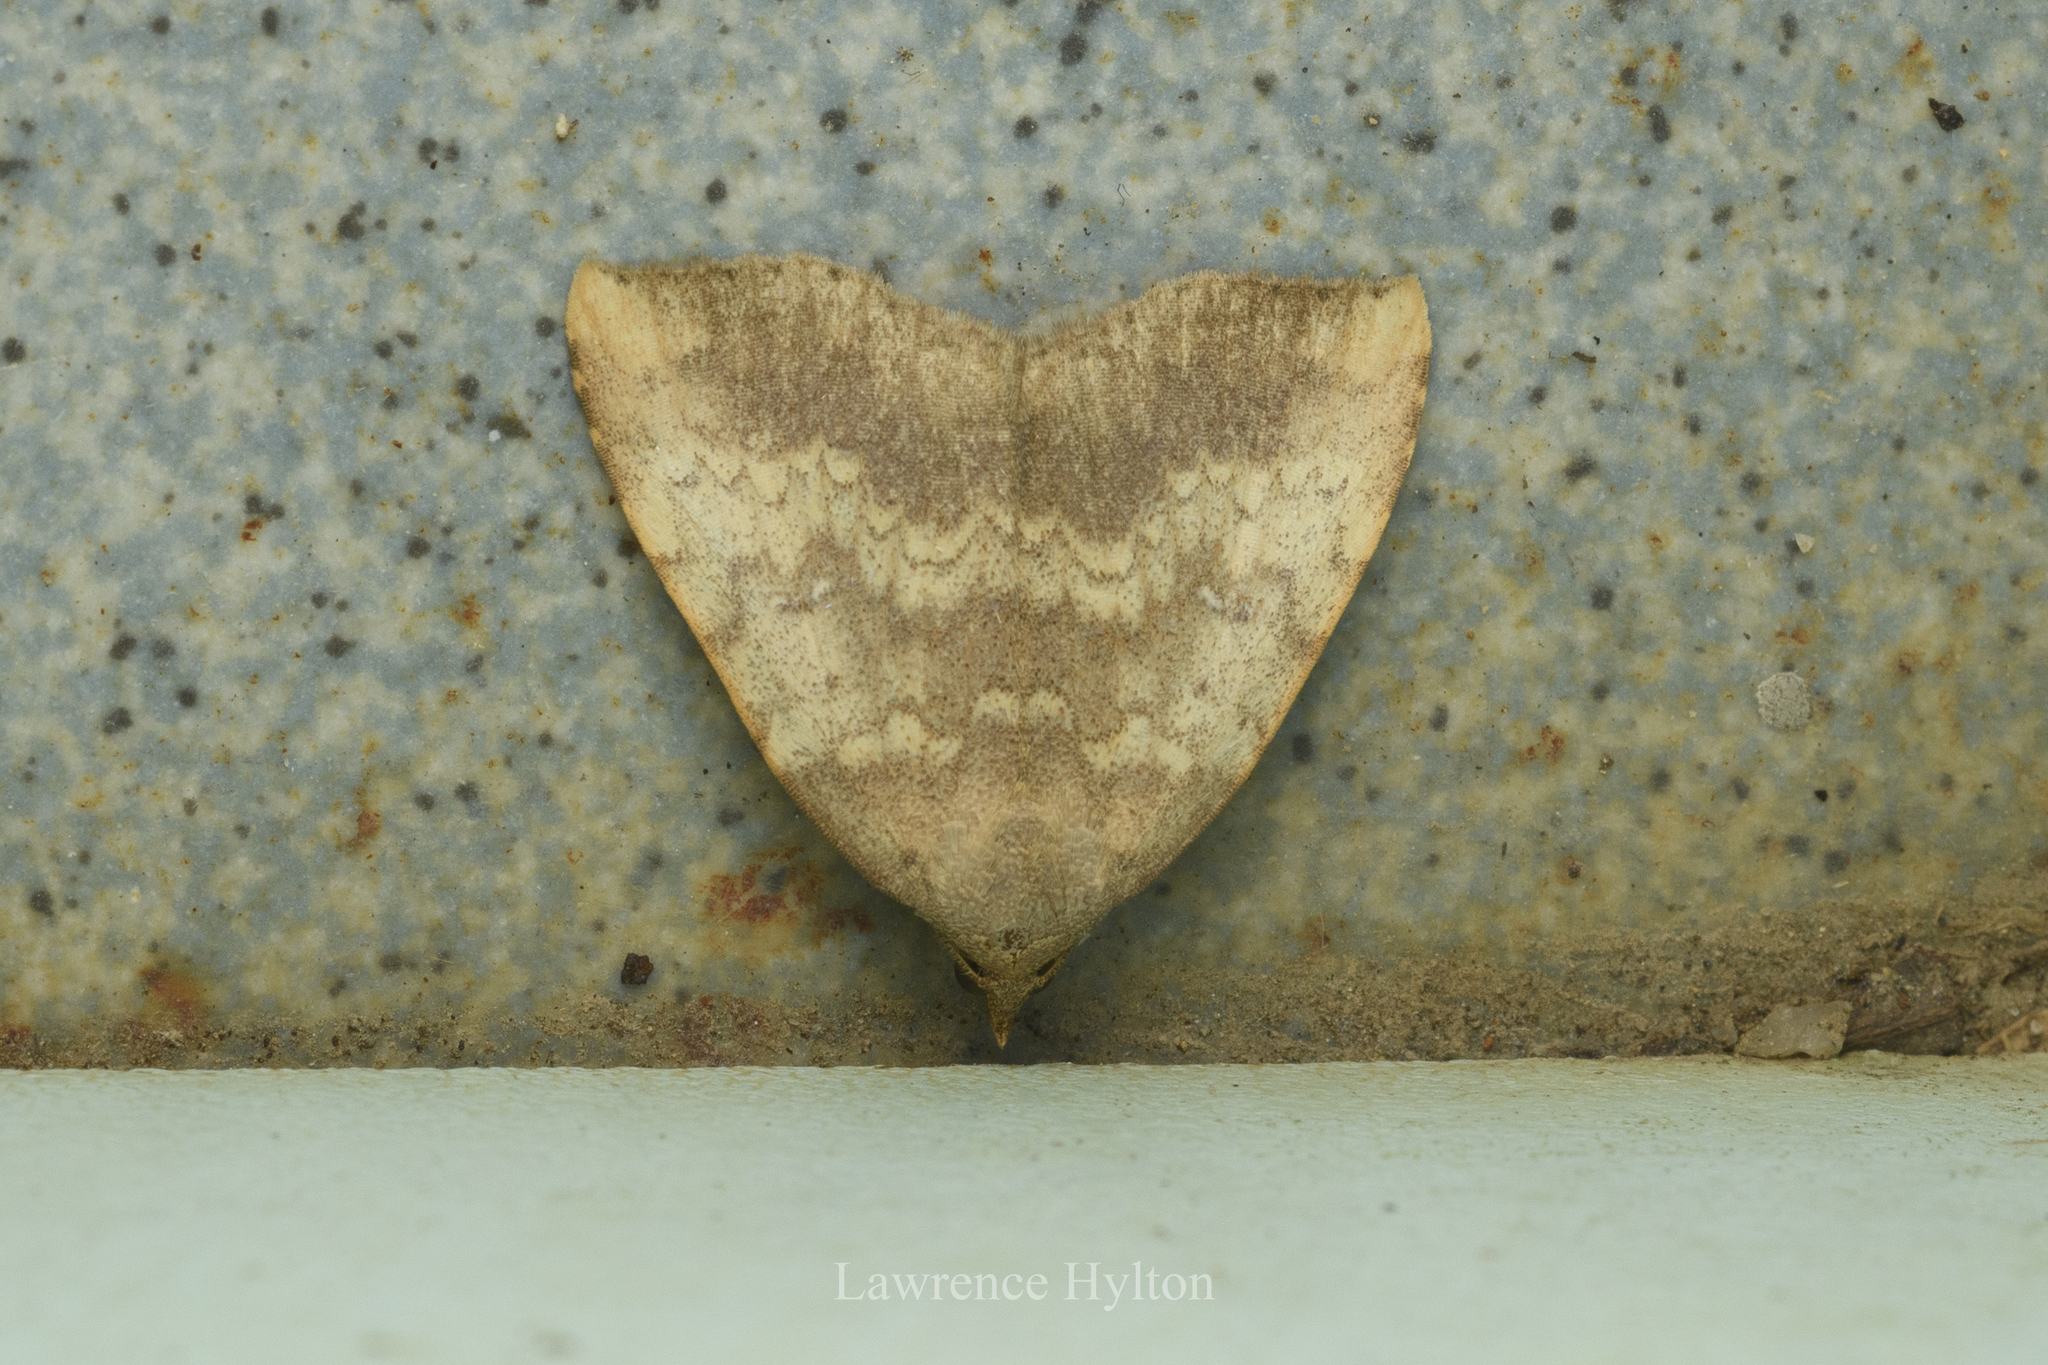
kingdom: Animalia
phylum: Arthropoda
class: Insecta
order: Lepidoptera
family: Erebidae
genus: Oglasa
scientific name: Oglasa umbrosa
